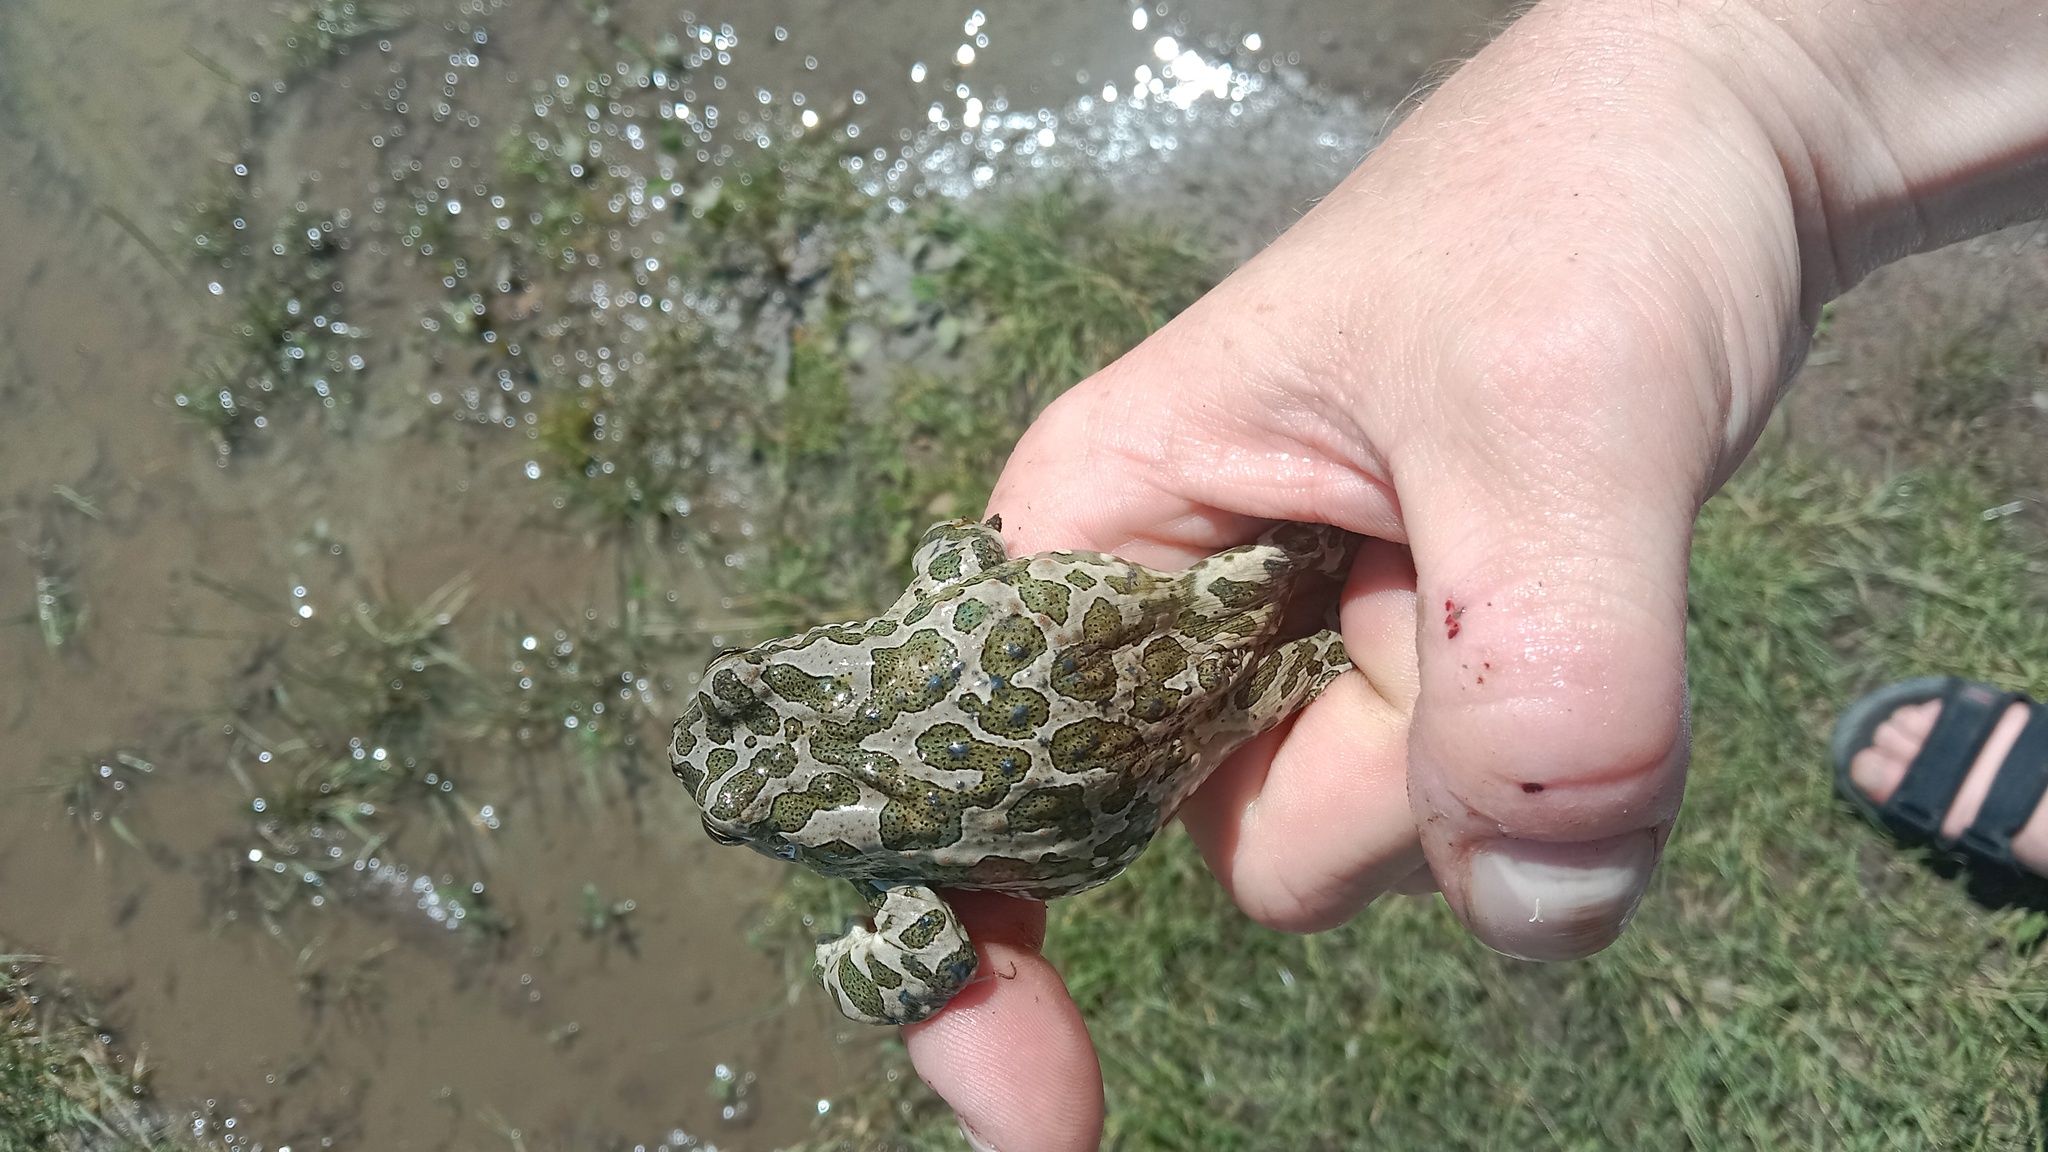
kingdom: Animalia
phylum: Chordata
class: Amphibia
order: Anura
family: Bufonidae
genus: Bufotes
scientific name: Bufotes viridis
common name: European green toad
